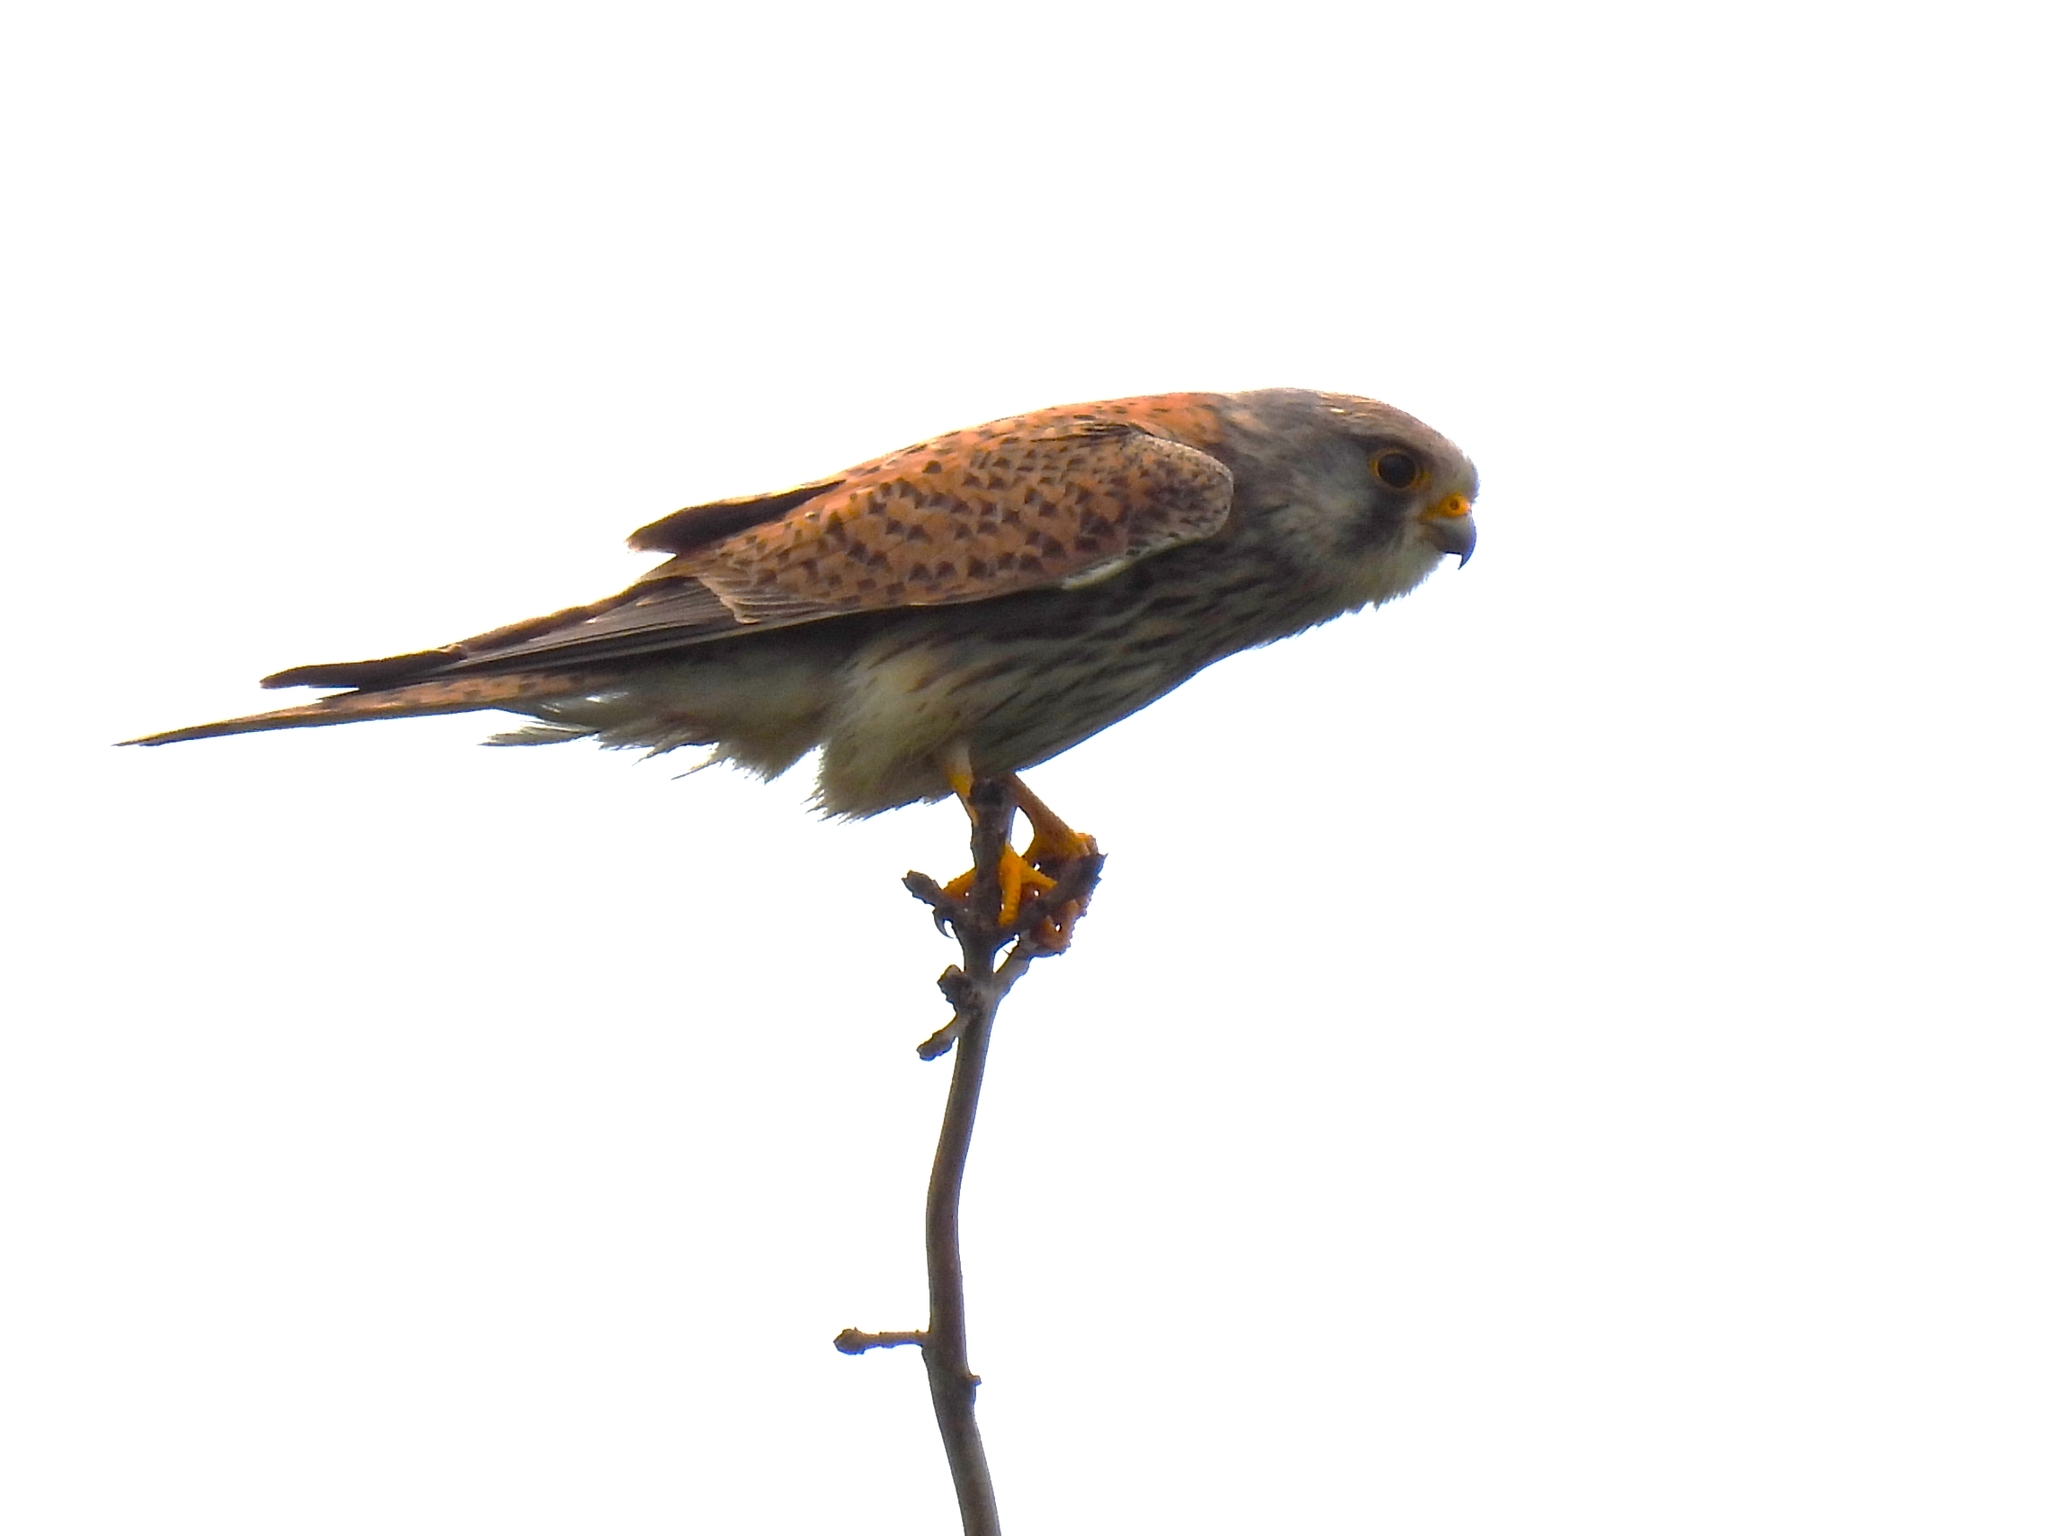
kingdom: Animalia
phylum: Chordata
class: Aves
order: Falconiformes
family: Falconidae
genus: Falco
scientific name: Falco tinnunculus
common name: Common kestrel
